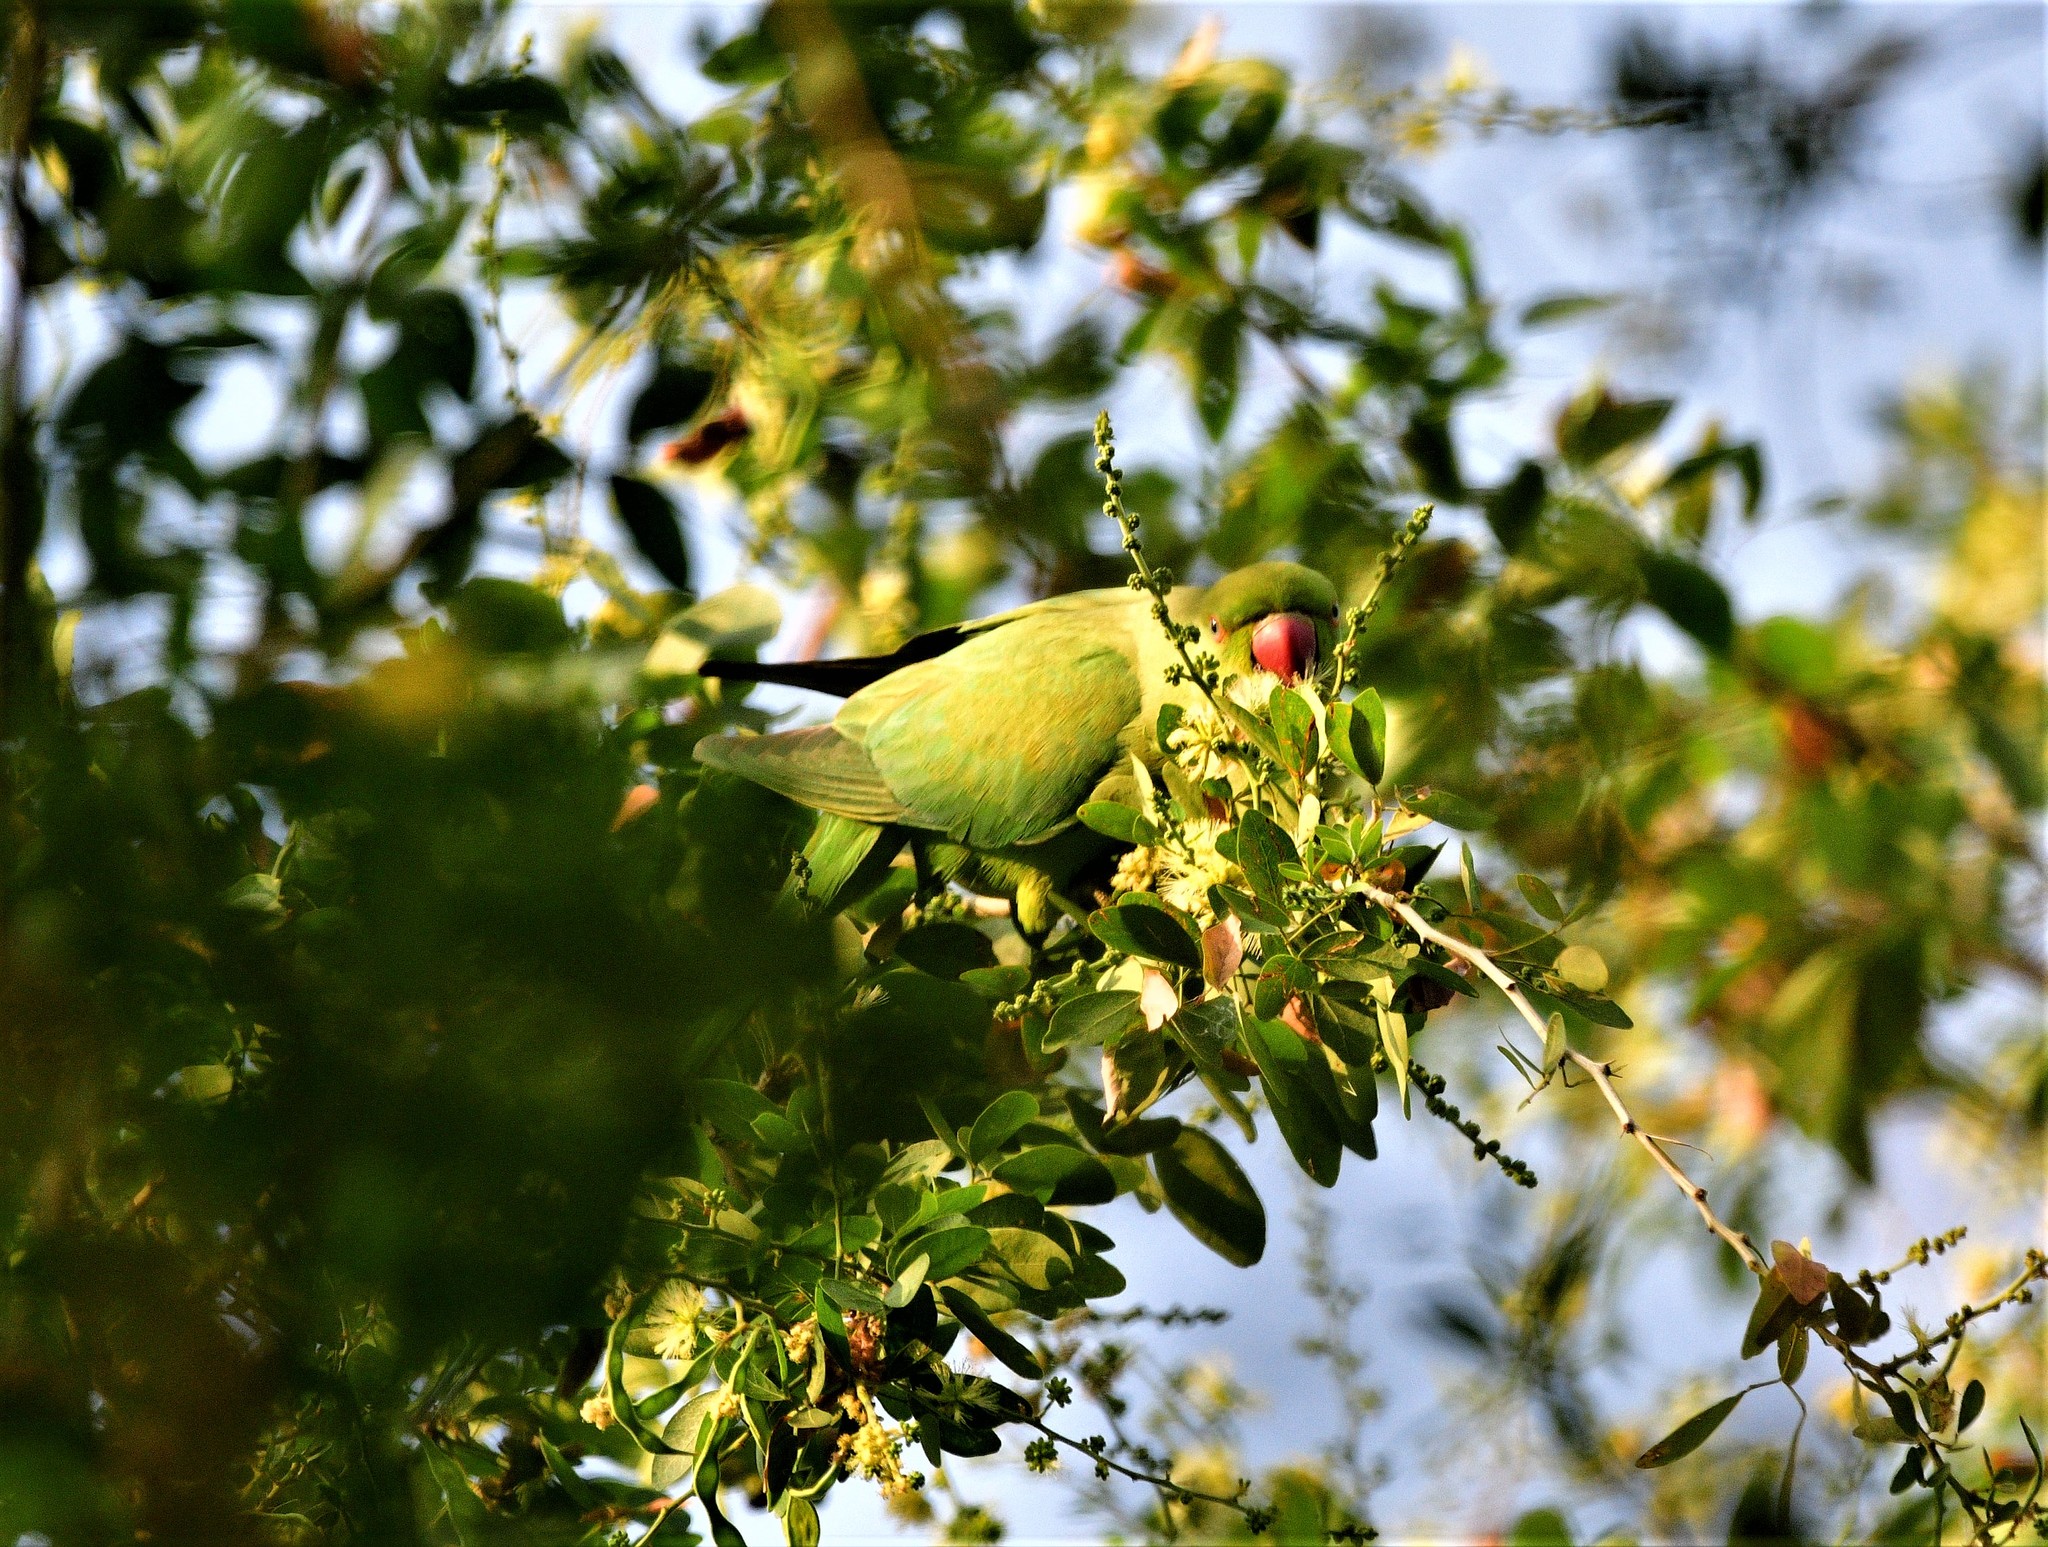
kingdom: Animalia
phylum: Chordata
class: Aves
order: Psittaciformes
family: Psittacidae
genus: Psittacula
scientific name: Psittacula krameri
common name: Rose-ringed parakeet
